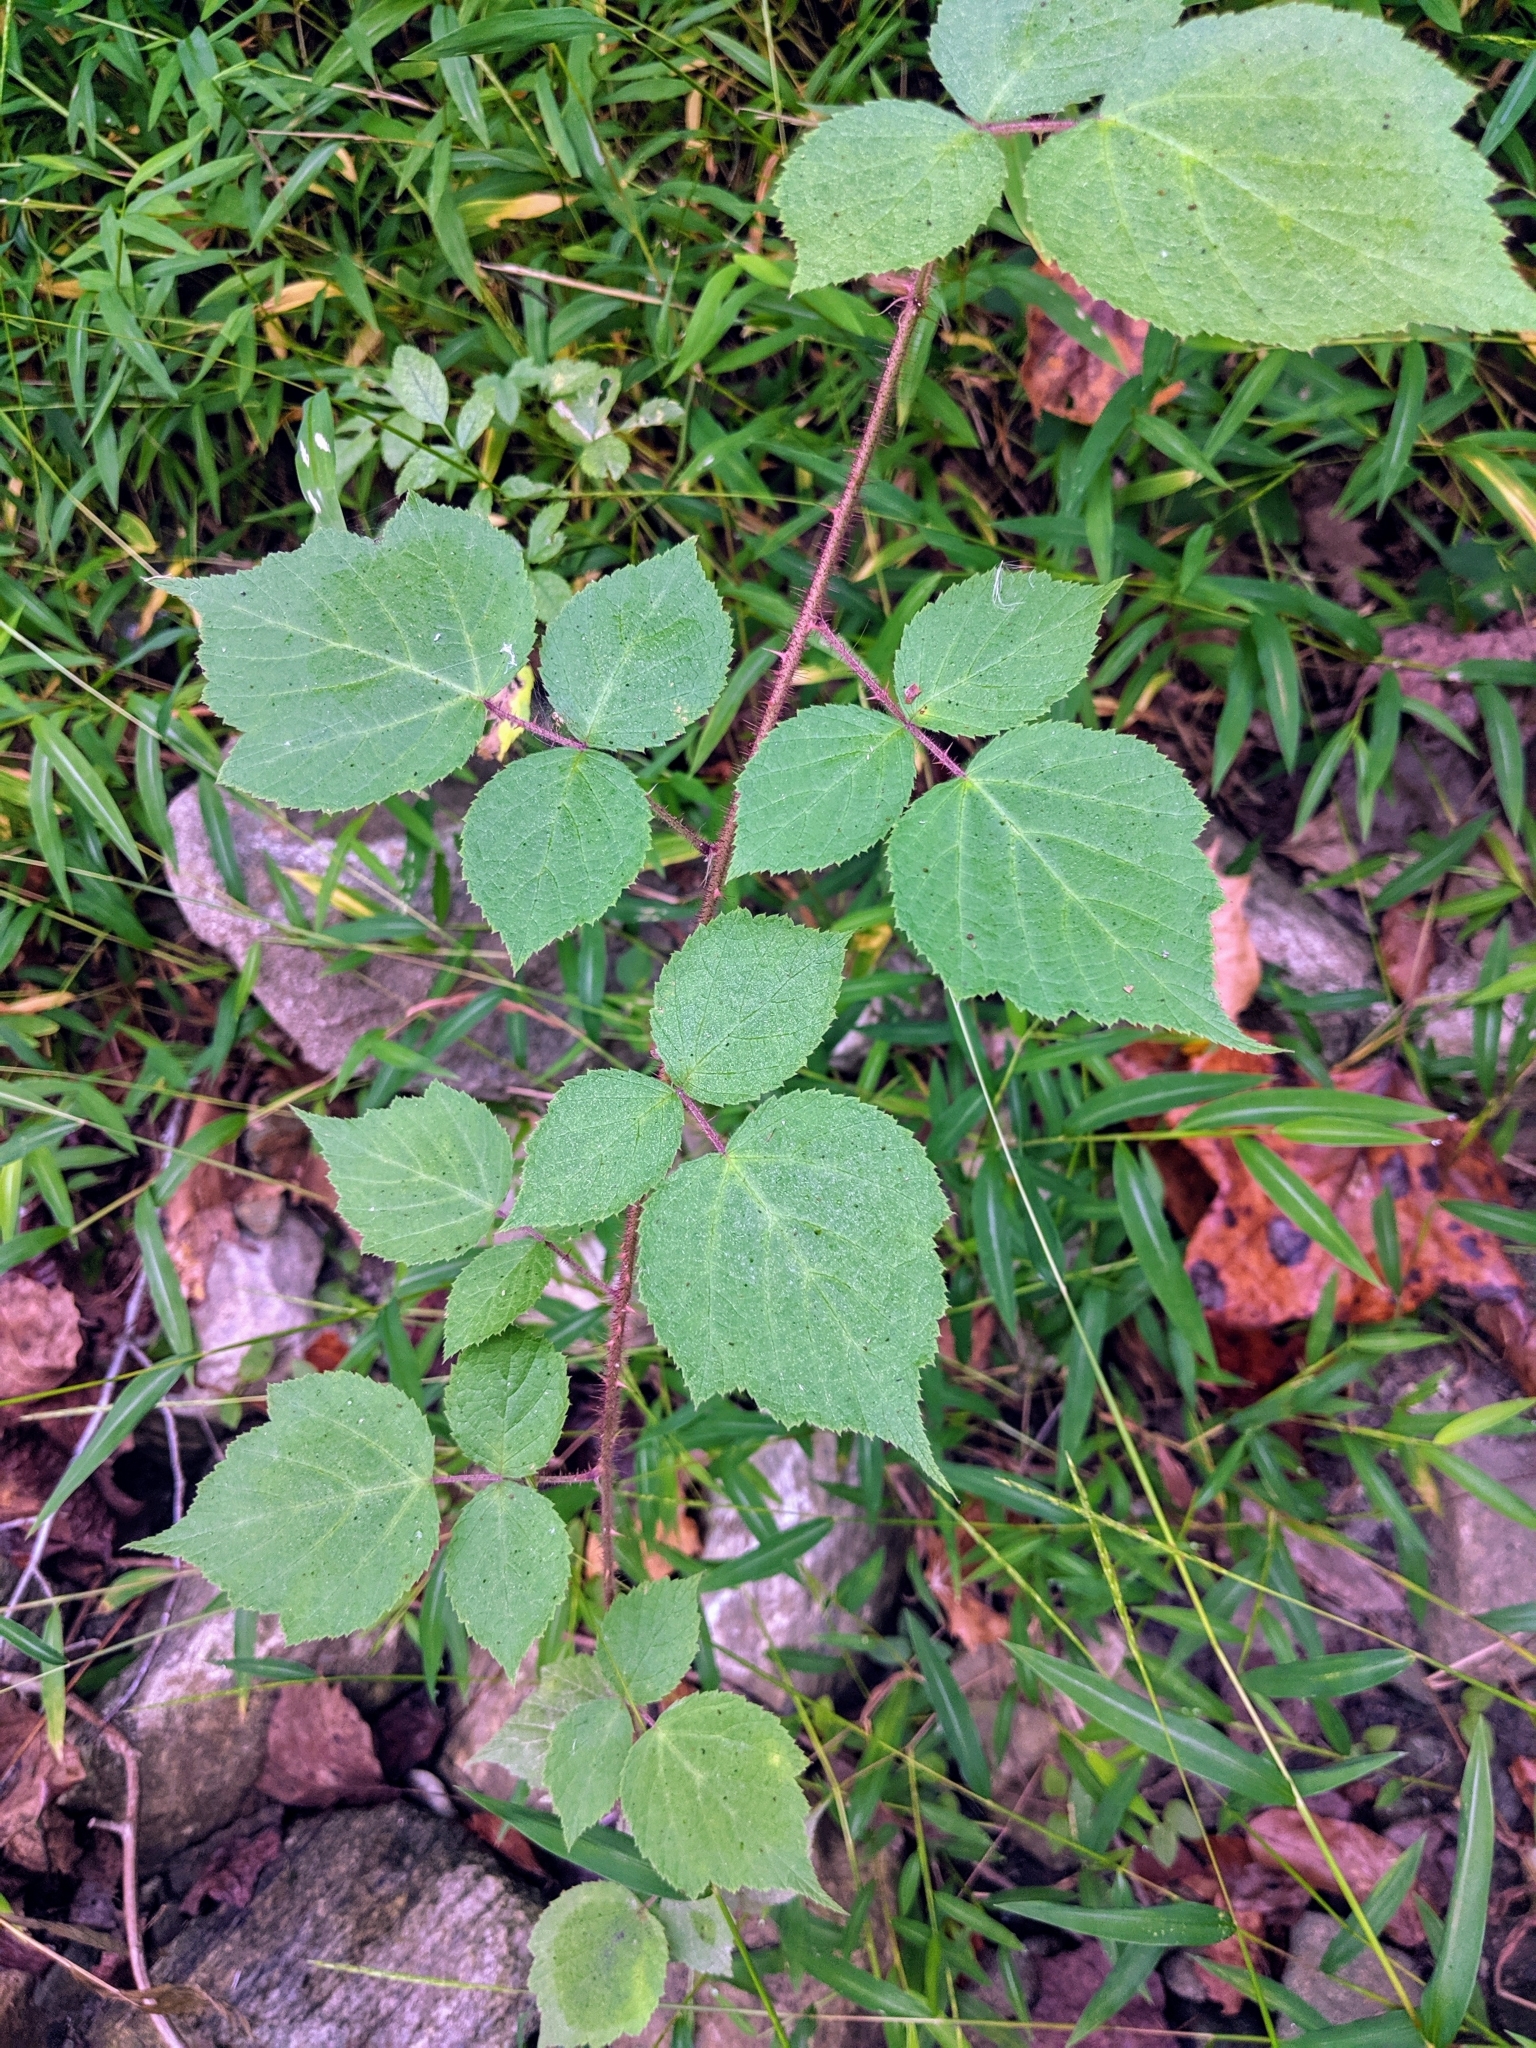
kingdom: Plantae
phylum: Tracheophyta
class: Magnoliopsida
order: Rosales
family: Rosaceae
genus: Rubus
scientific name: Rubus phoenicolasius
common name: Japanese wineberry
